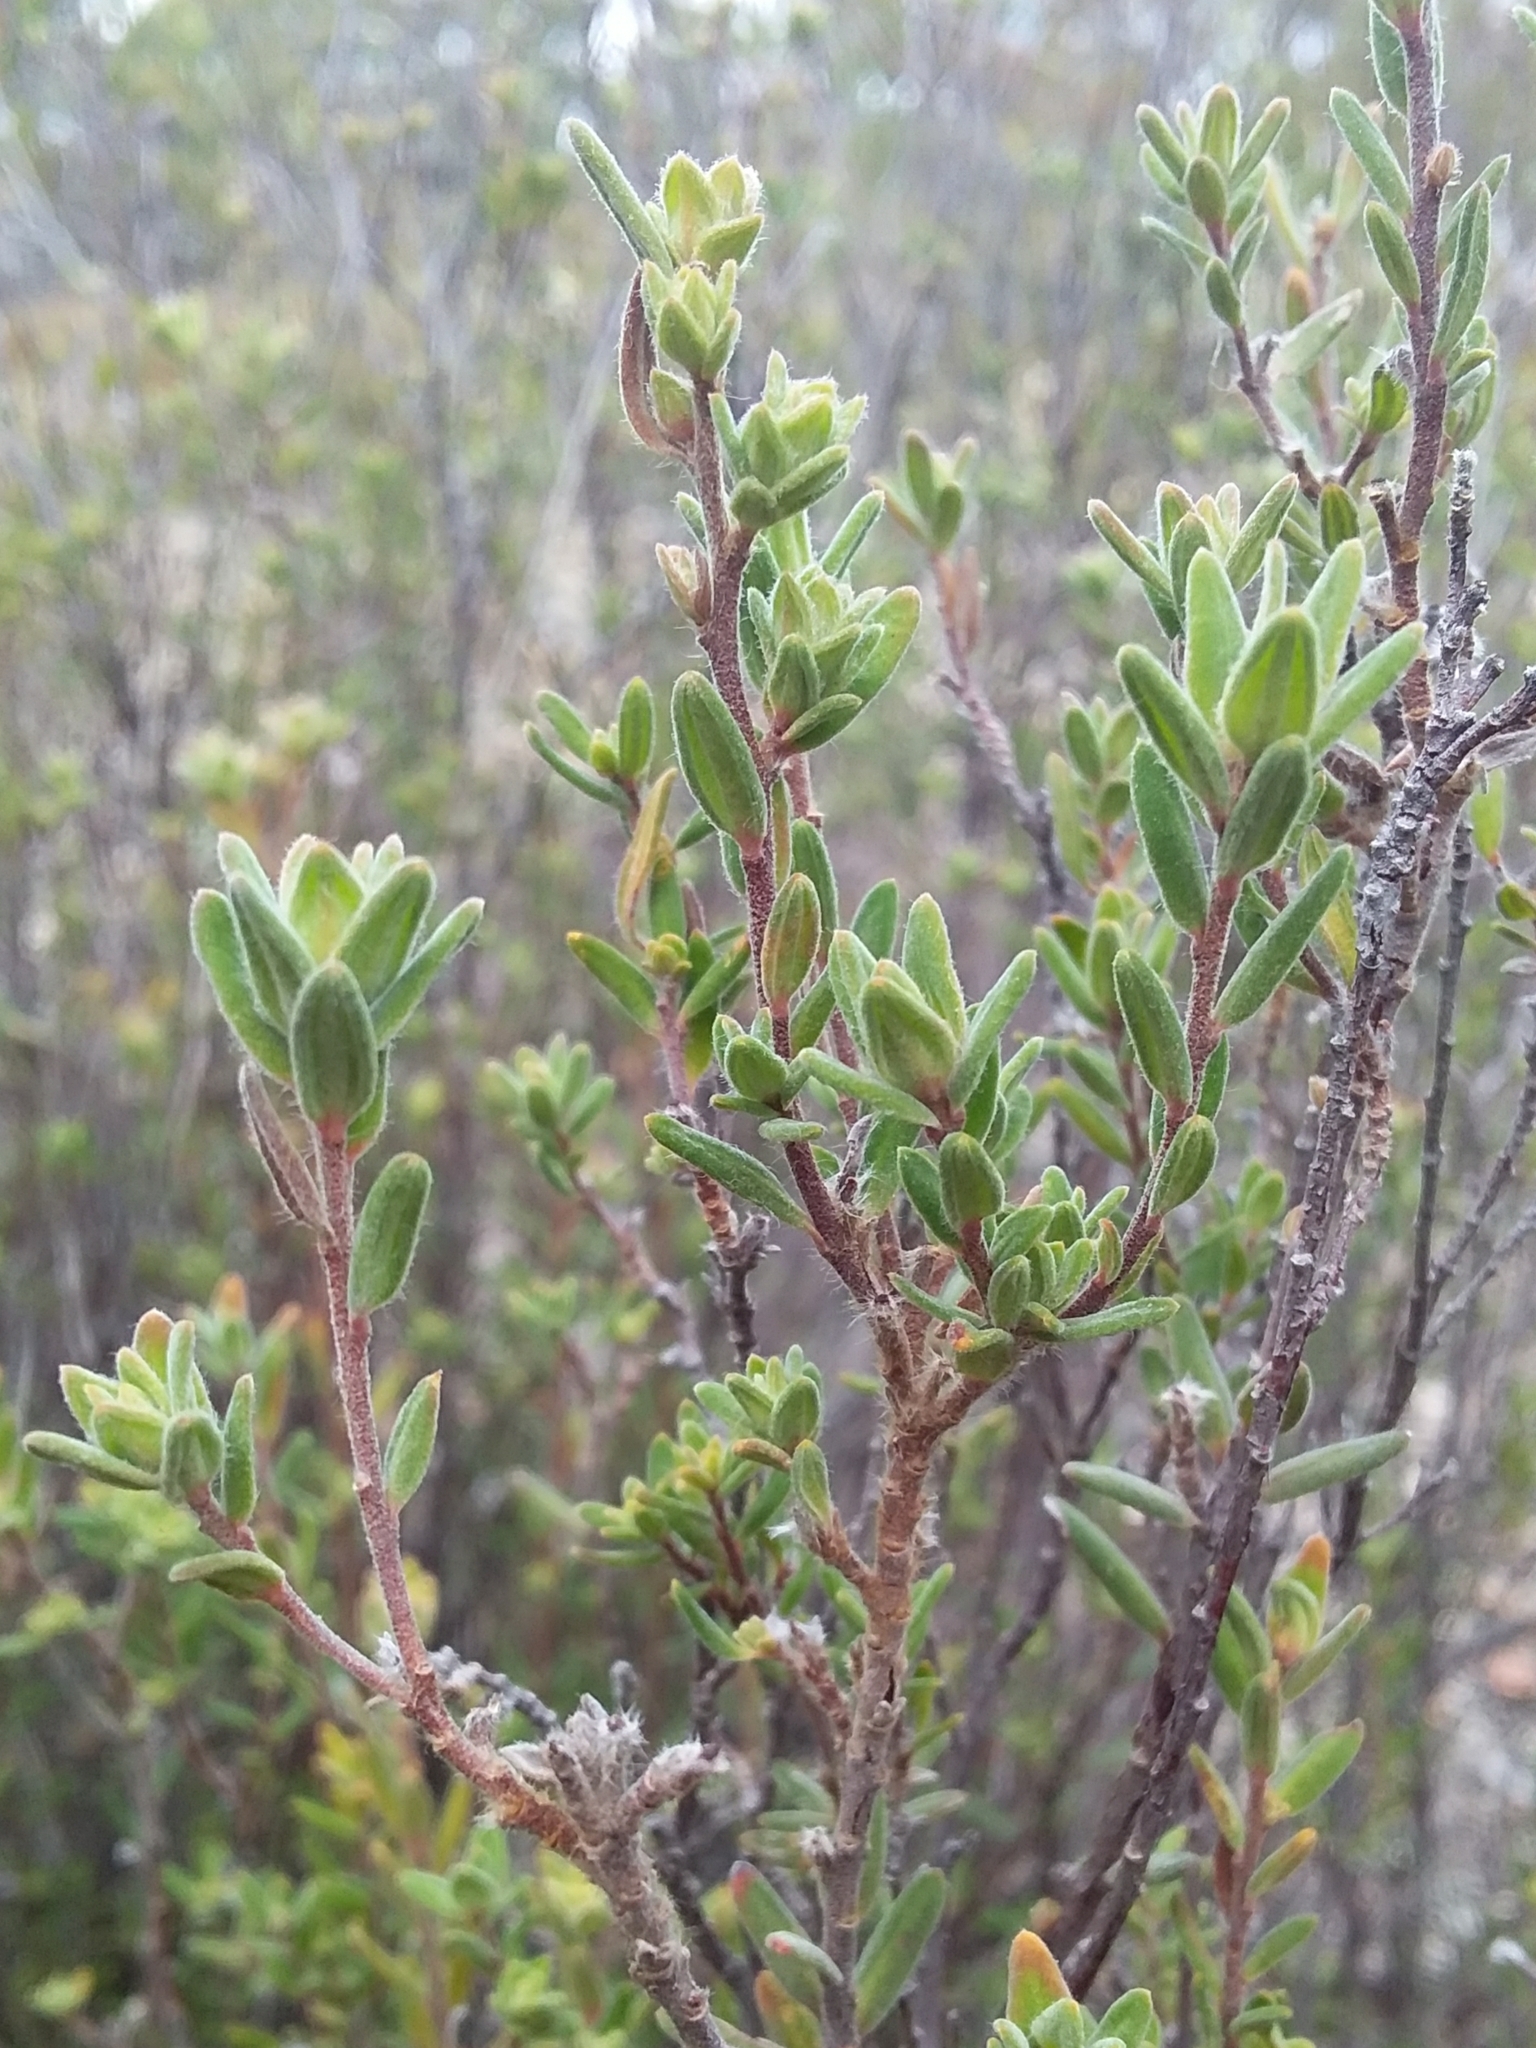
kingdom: Plantae
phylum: Tracheophyta
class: Magnoliopsida
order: Dilleniales
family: Dilleniaceae
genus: Hibbertia
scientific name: Hibbertia crinita
